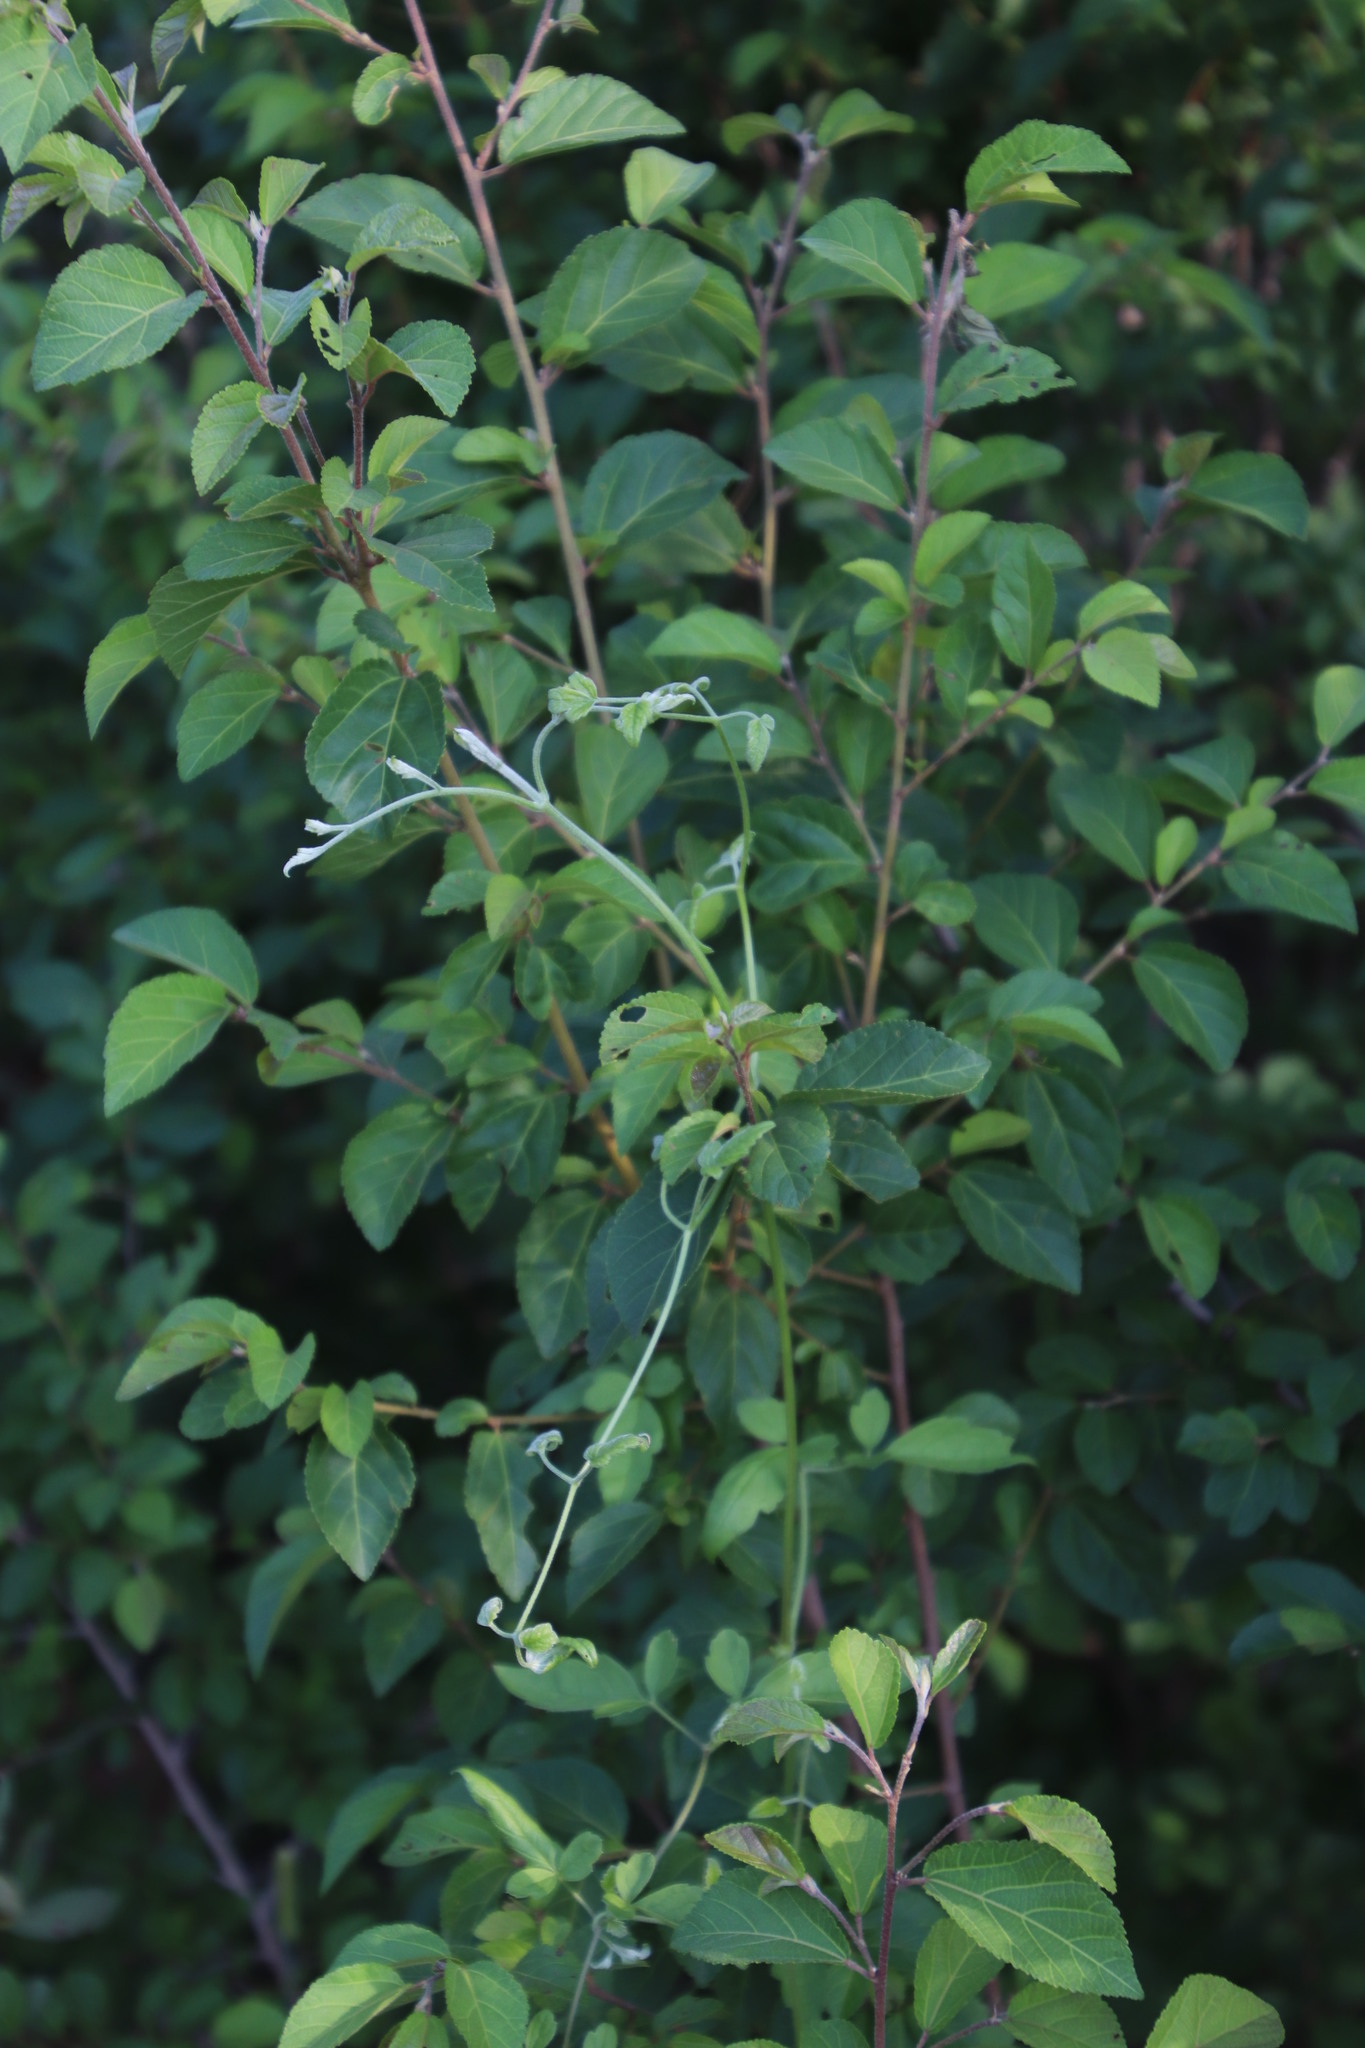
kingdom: Plantae
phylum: Tracheophyta
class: Magnoliopsida
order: Ranunculales
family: Ranunculaceae
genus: Clematis
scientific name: Clematis brachiata
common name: Traveler's-joy
